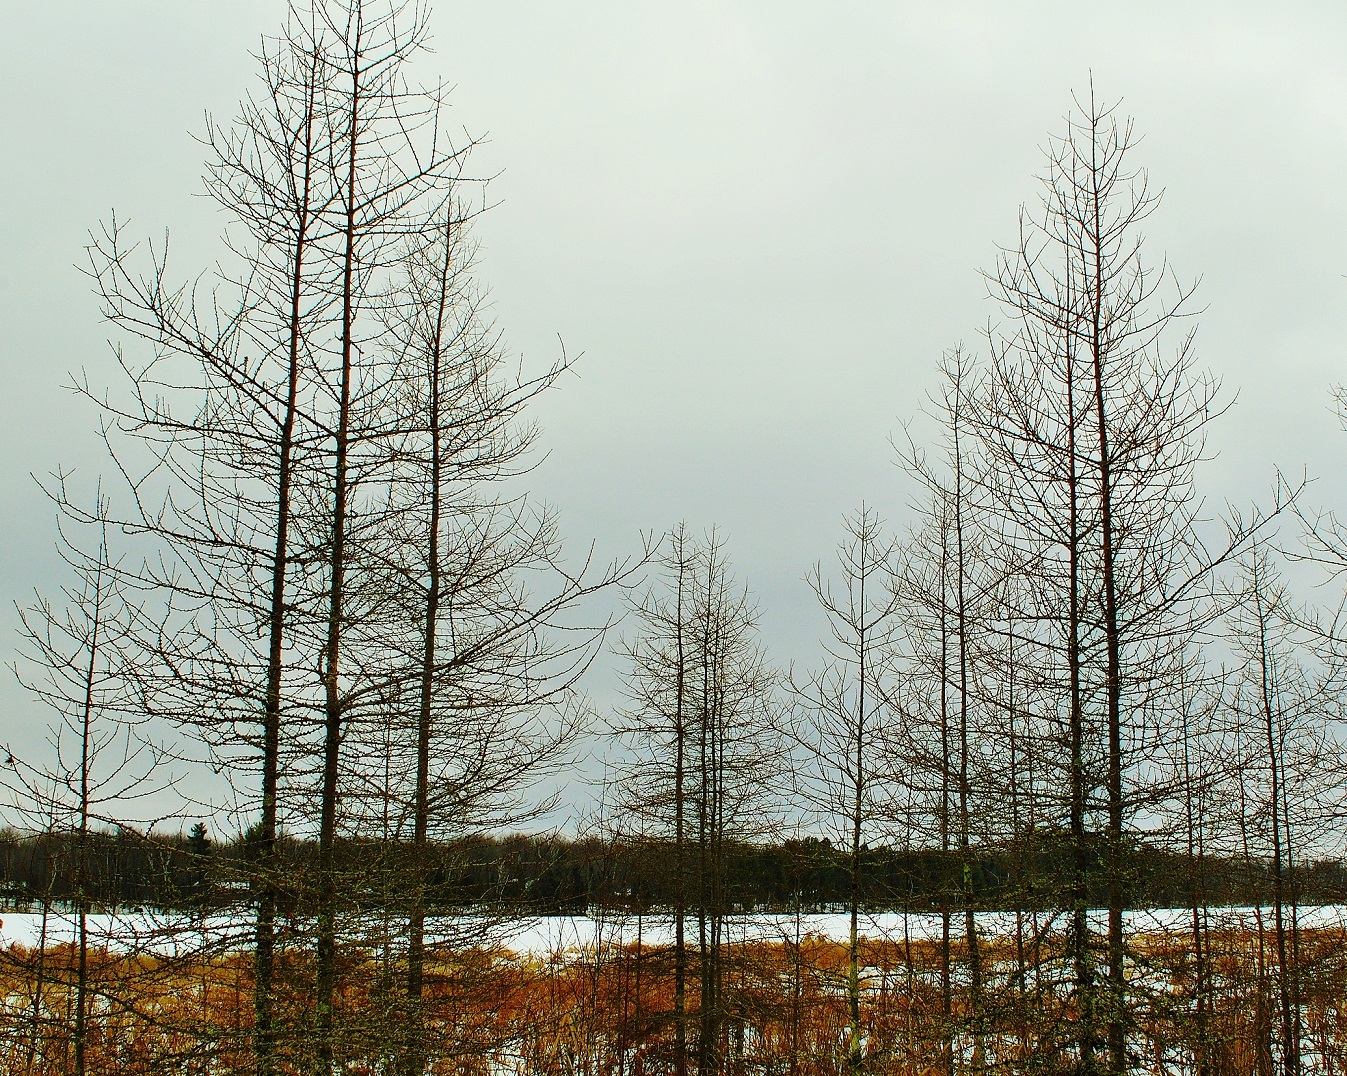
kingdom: Plantae
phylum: Tracheophyta
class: Pinopsida
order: Pinales
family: Pinaceae
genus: Larix
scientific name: Larix laricina
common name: American larch
